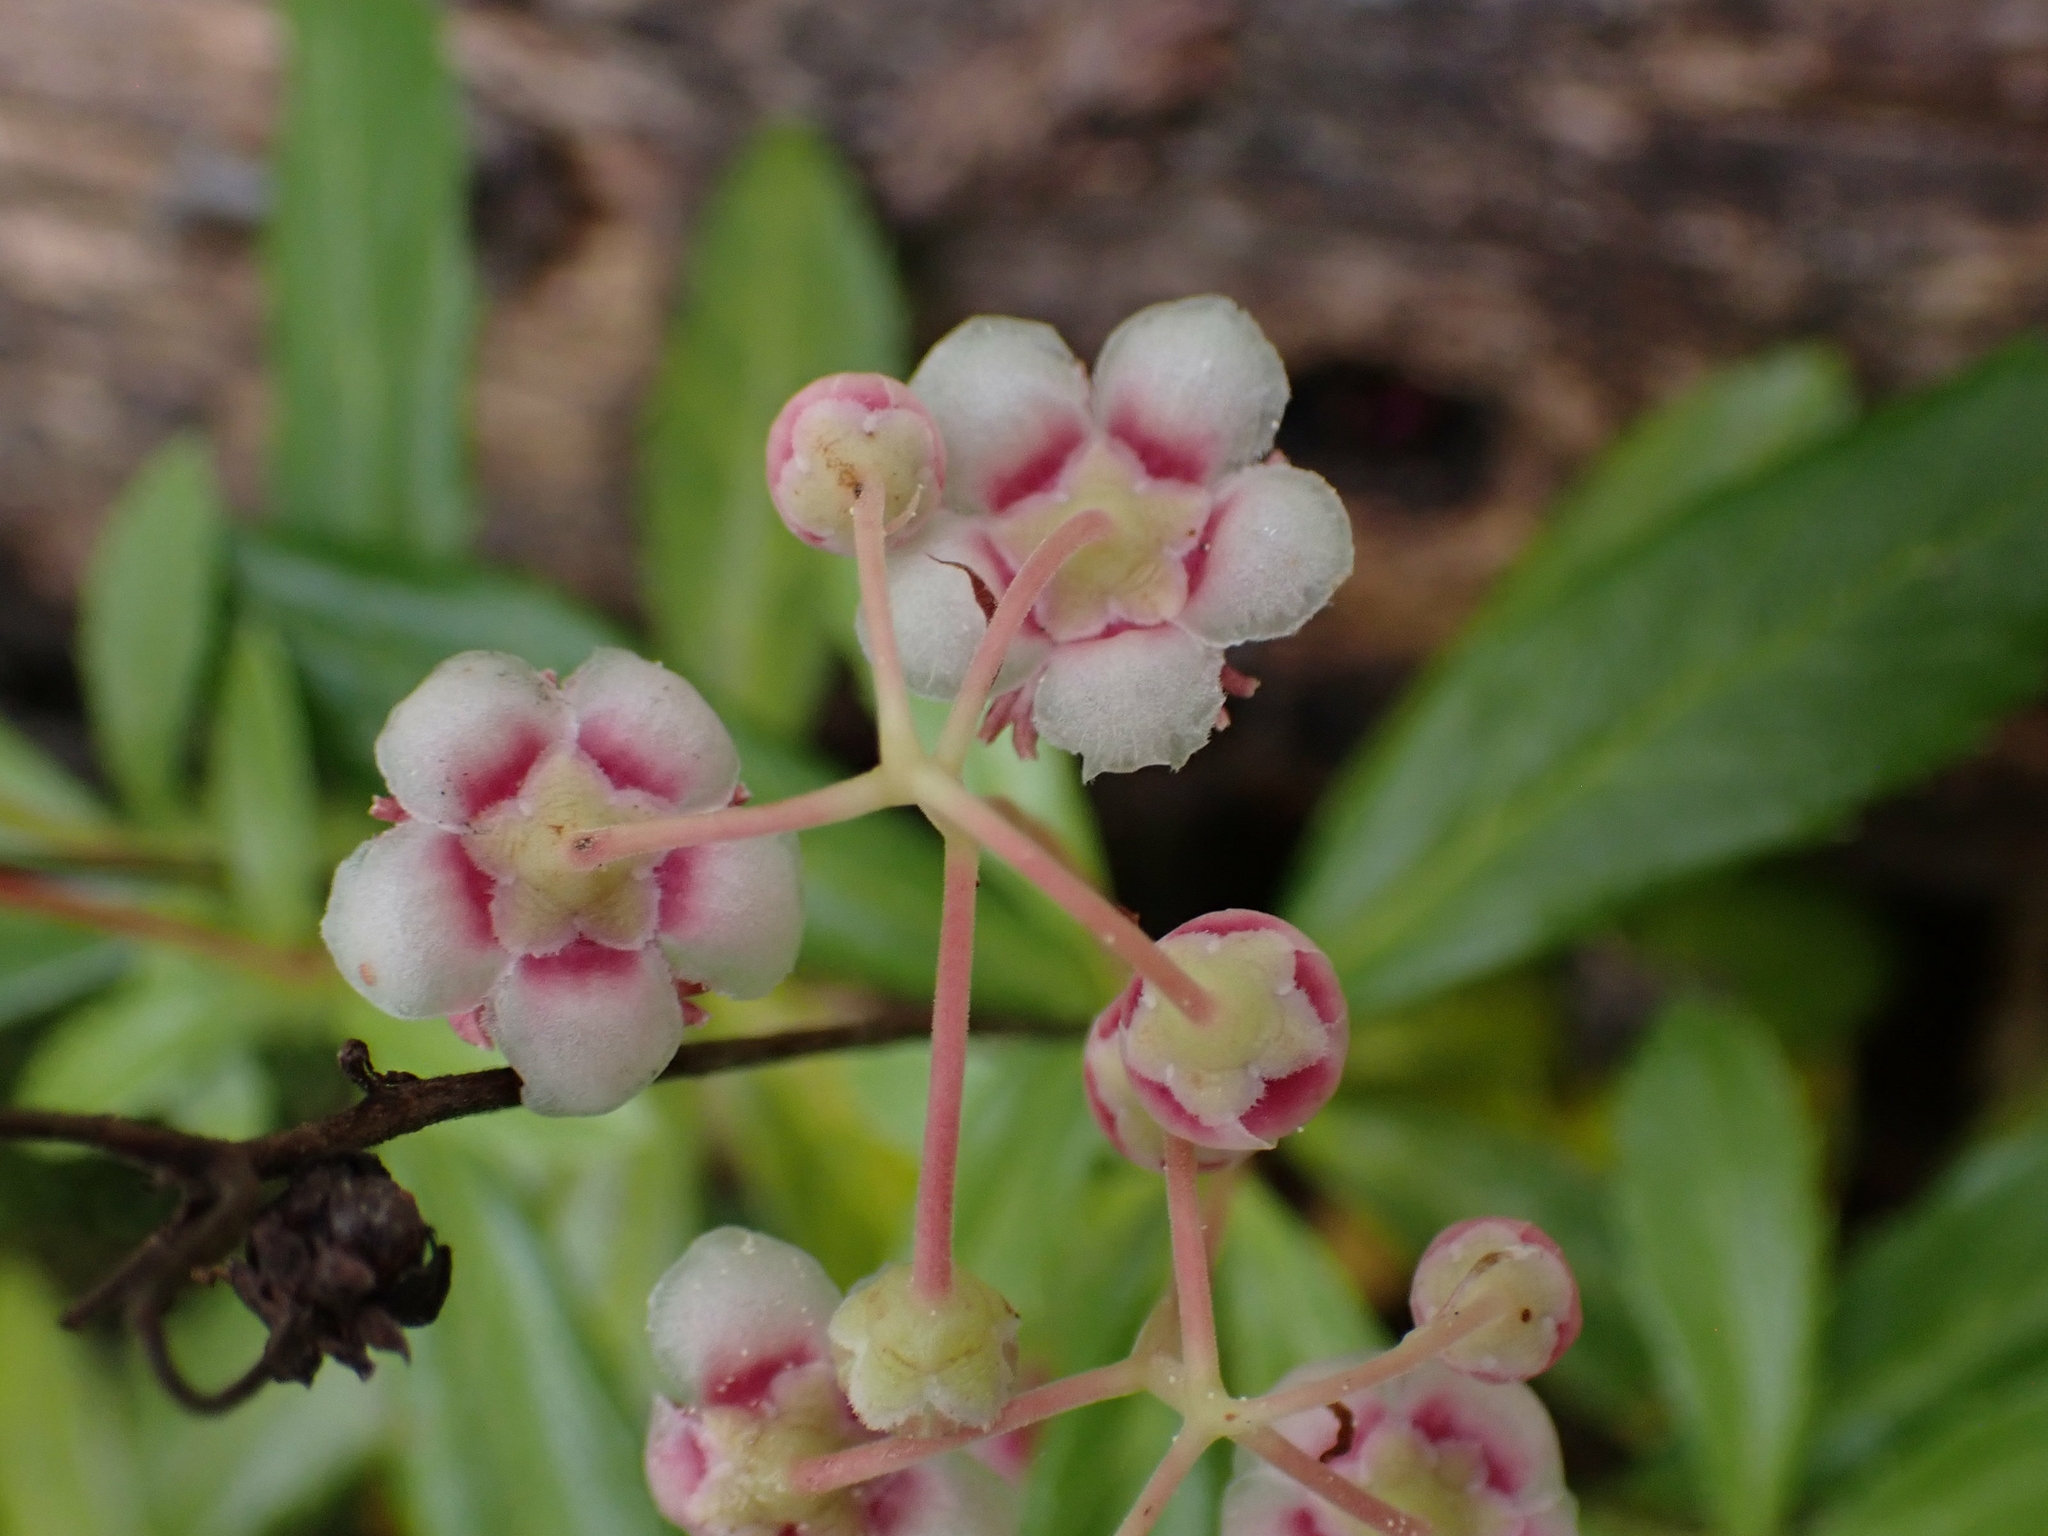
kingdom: Plantae
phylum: Tracheophyta
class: Magnoliopsida
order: Ericales
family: Ericaceae
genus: Chimaphila
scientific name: Chimaphila umbellata
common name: Pipsissewa
